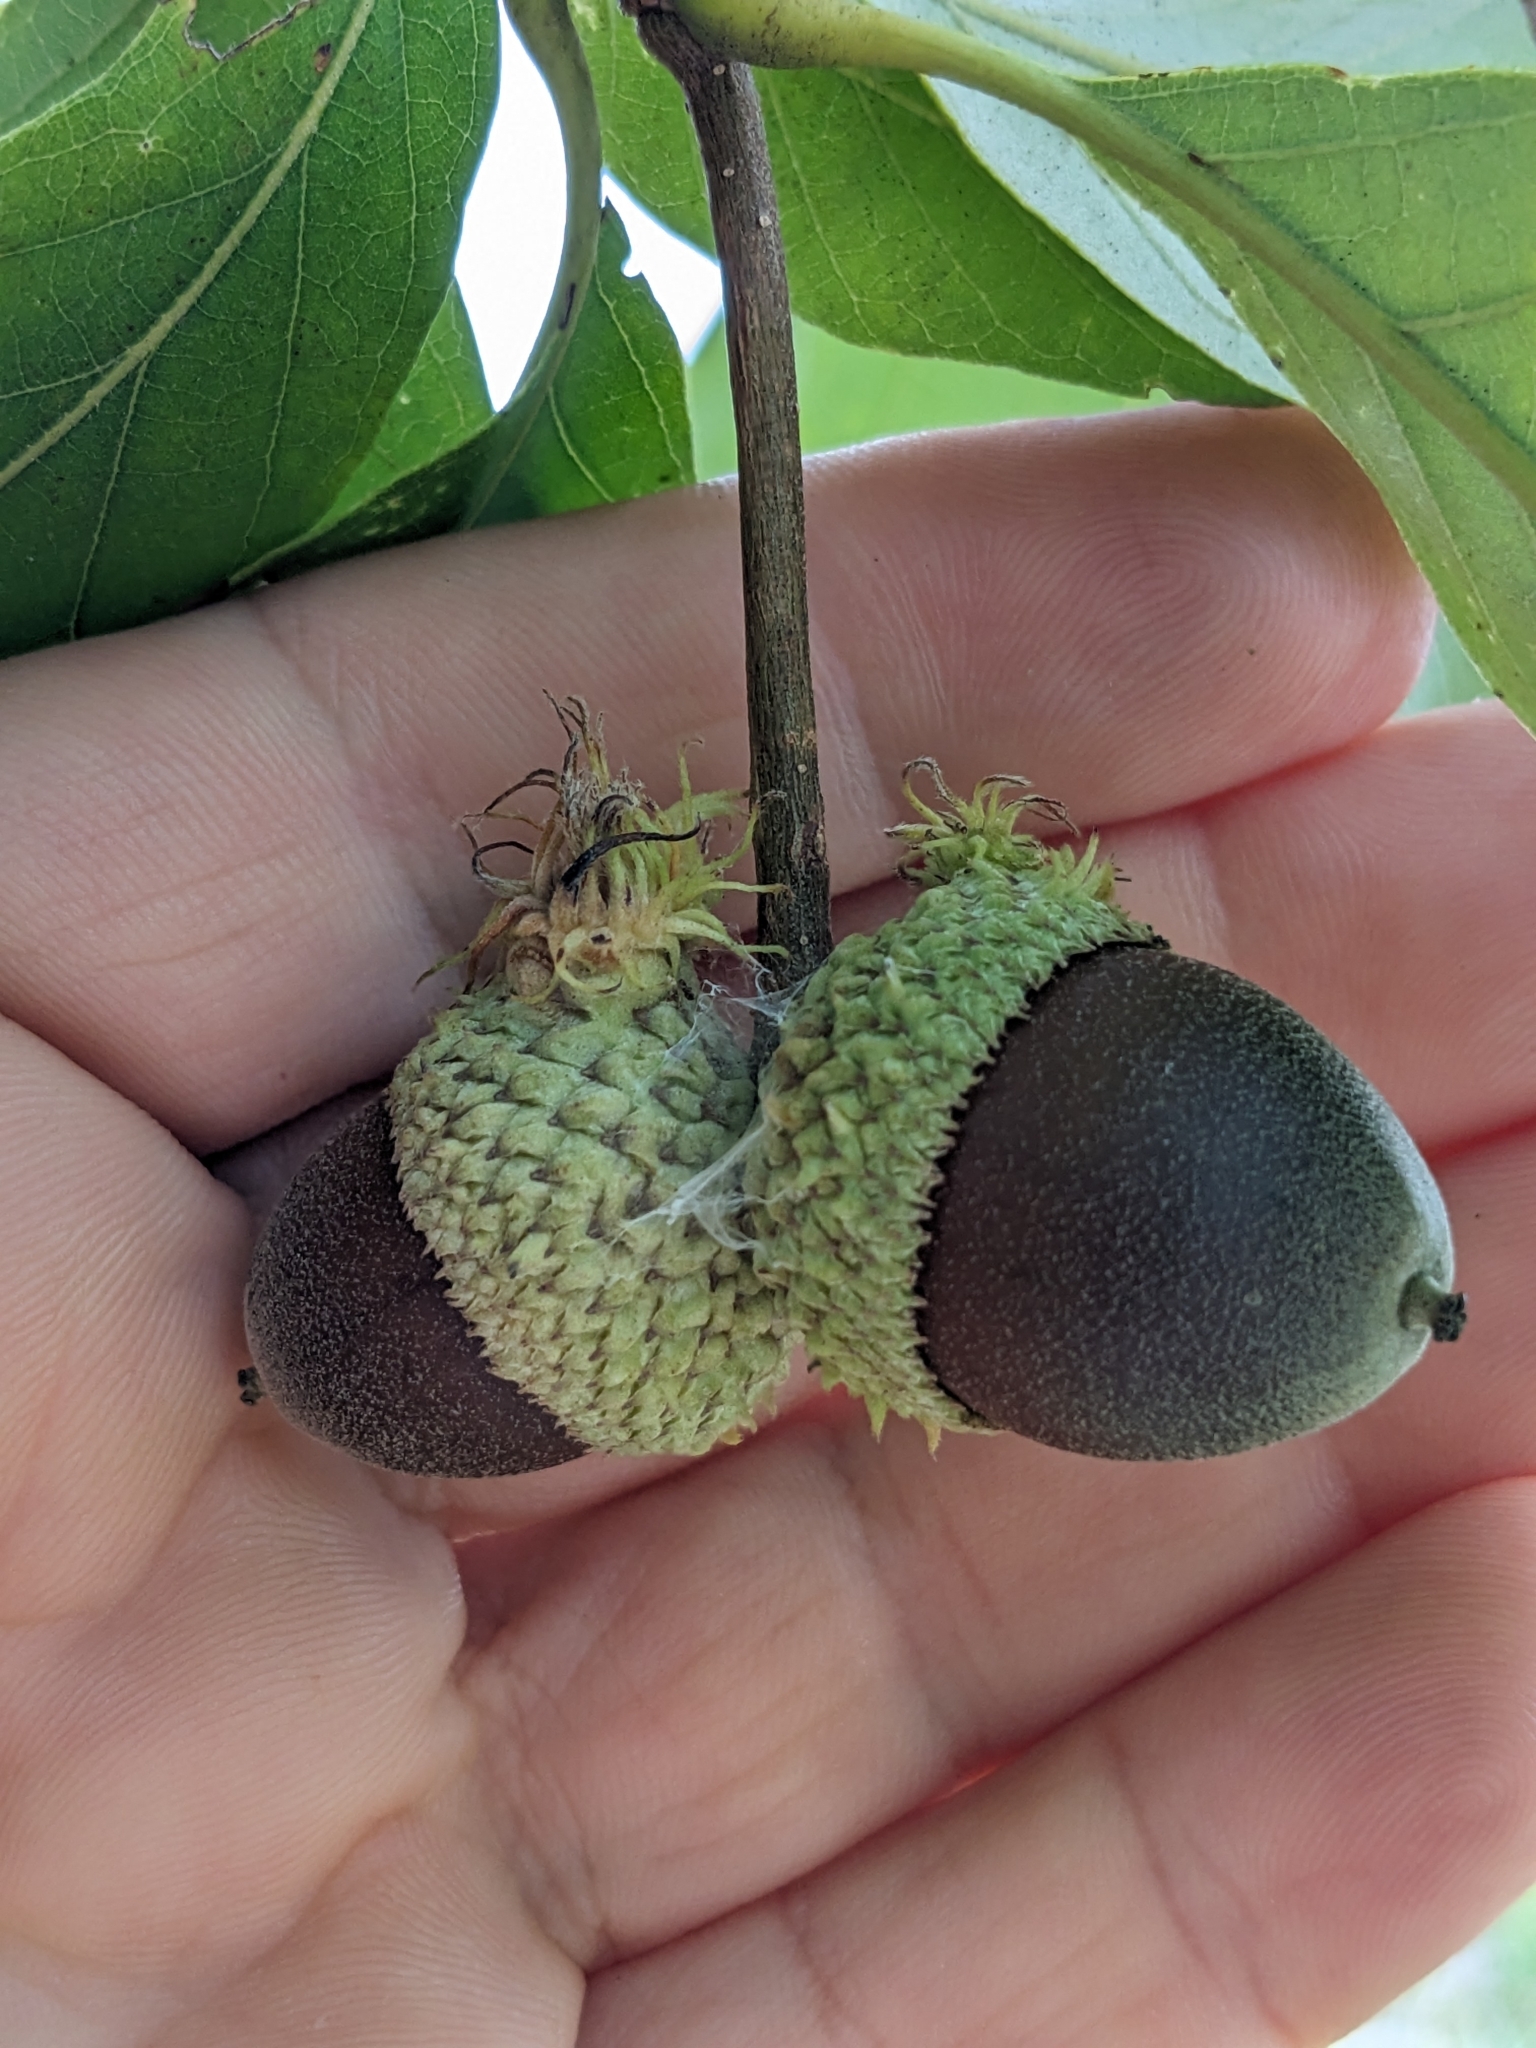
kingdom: Animalia
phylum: Arthropoda
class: Insecta
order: Hymenoptera
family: Cynipidae
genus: Andricus
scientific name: Andricus
